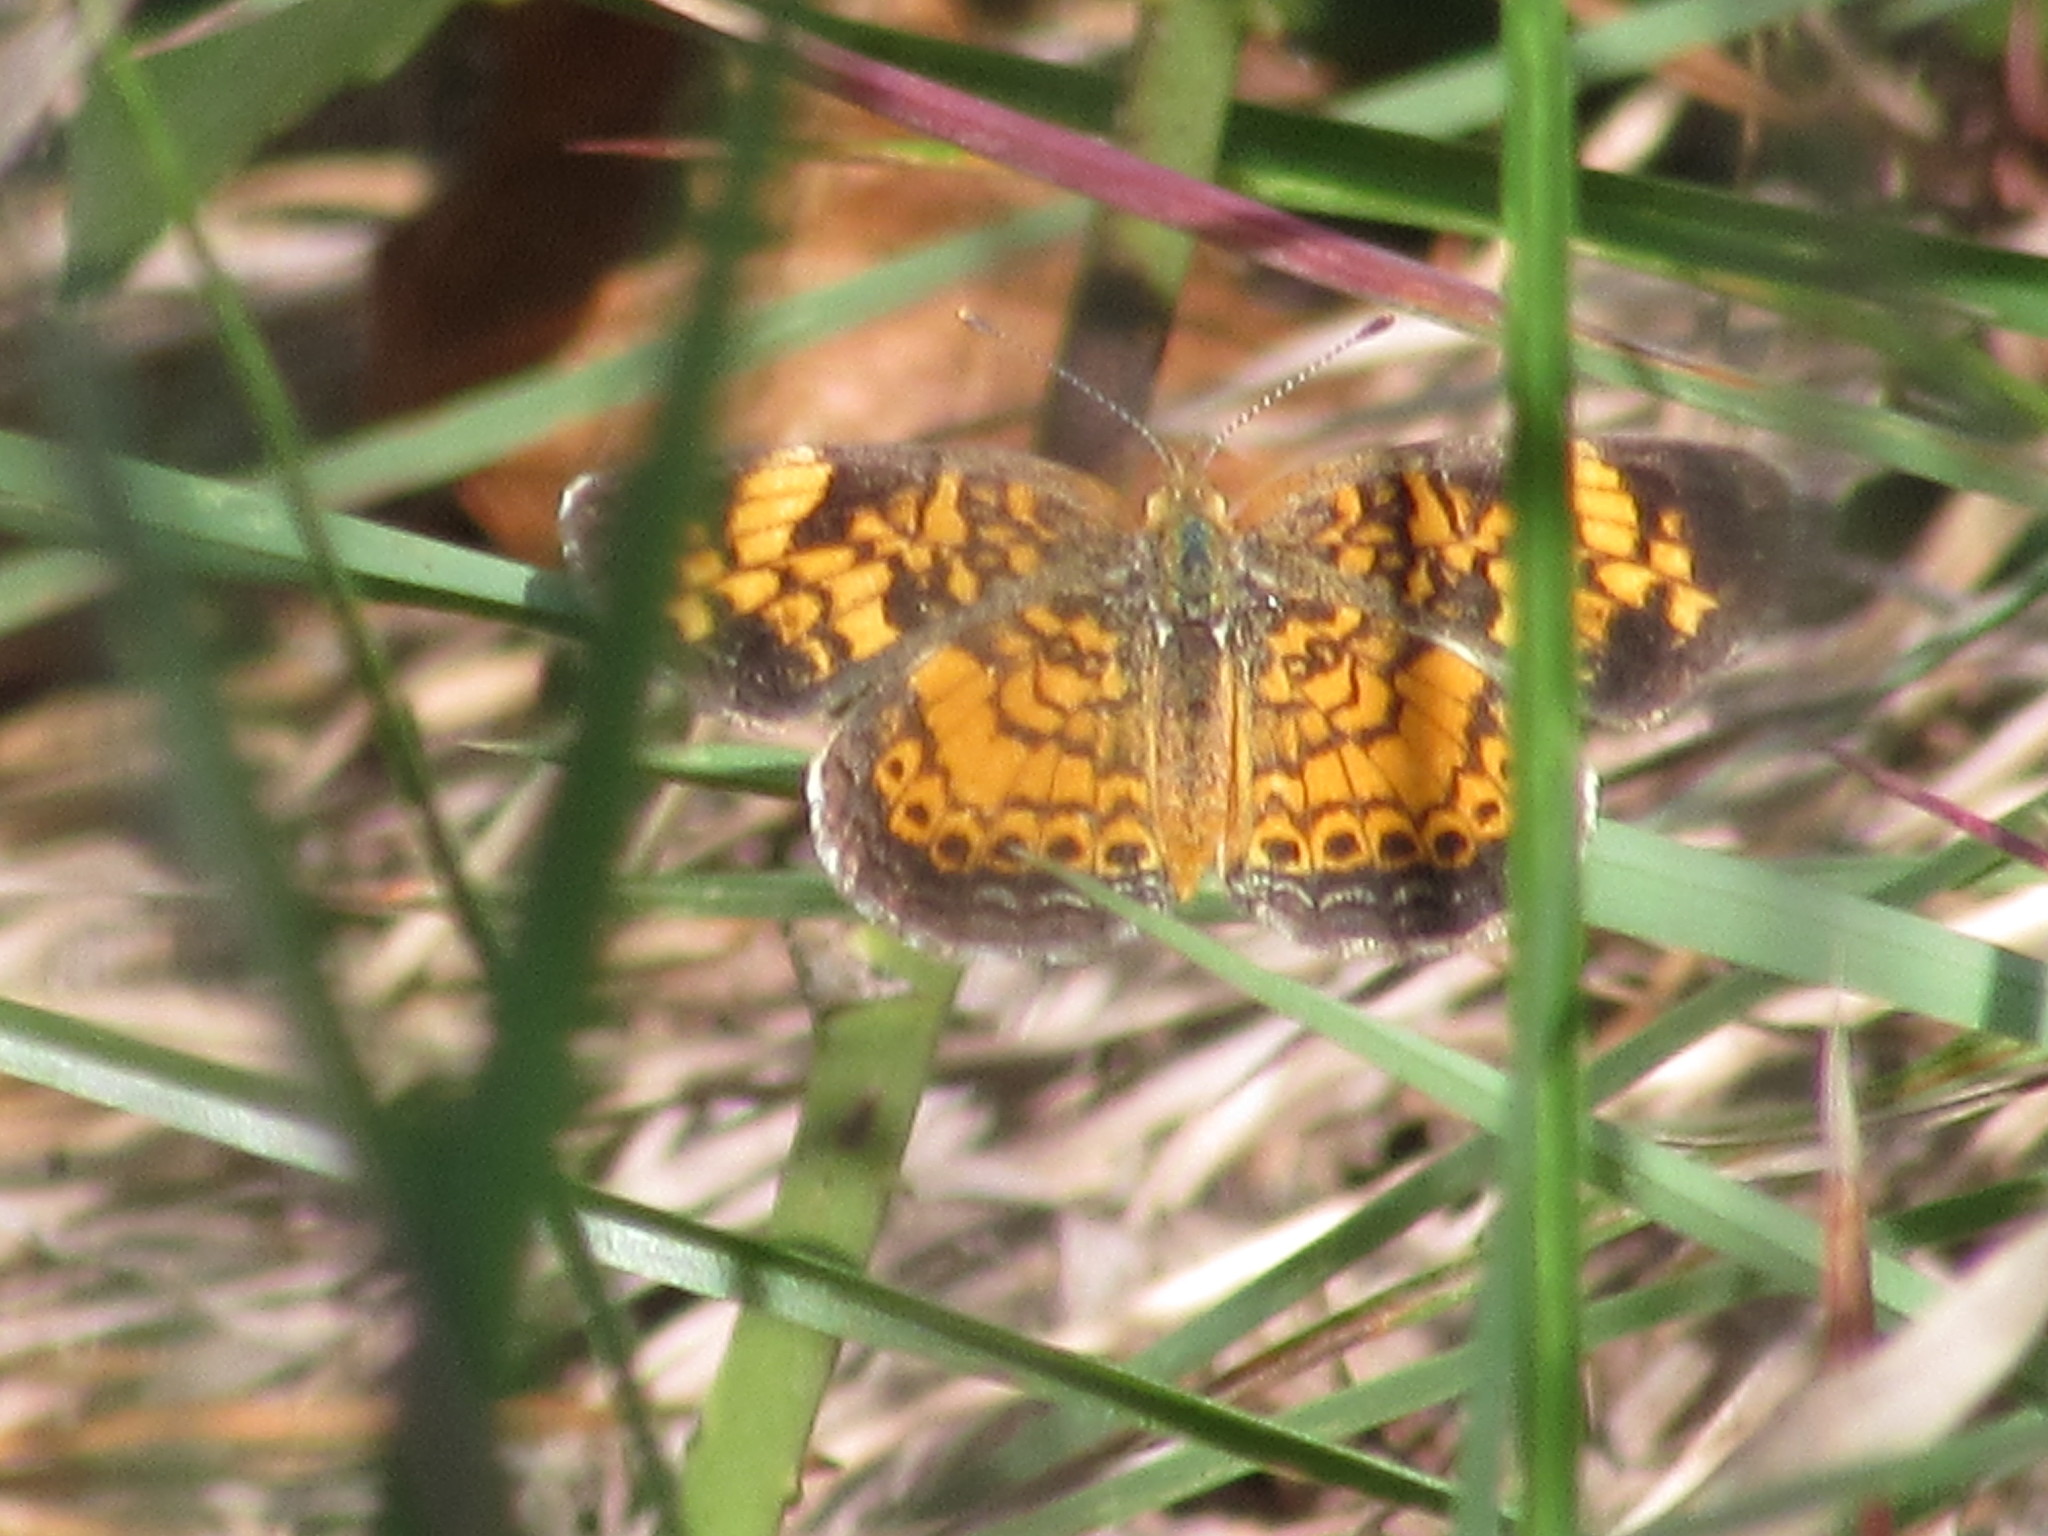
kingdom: Animalia
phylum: Arthropoda
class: Insecta
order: Lepidoptera
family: Nymphalidae
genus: Phyciodes
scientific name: Phyciodes tharos
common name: Pearl crescent
